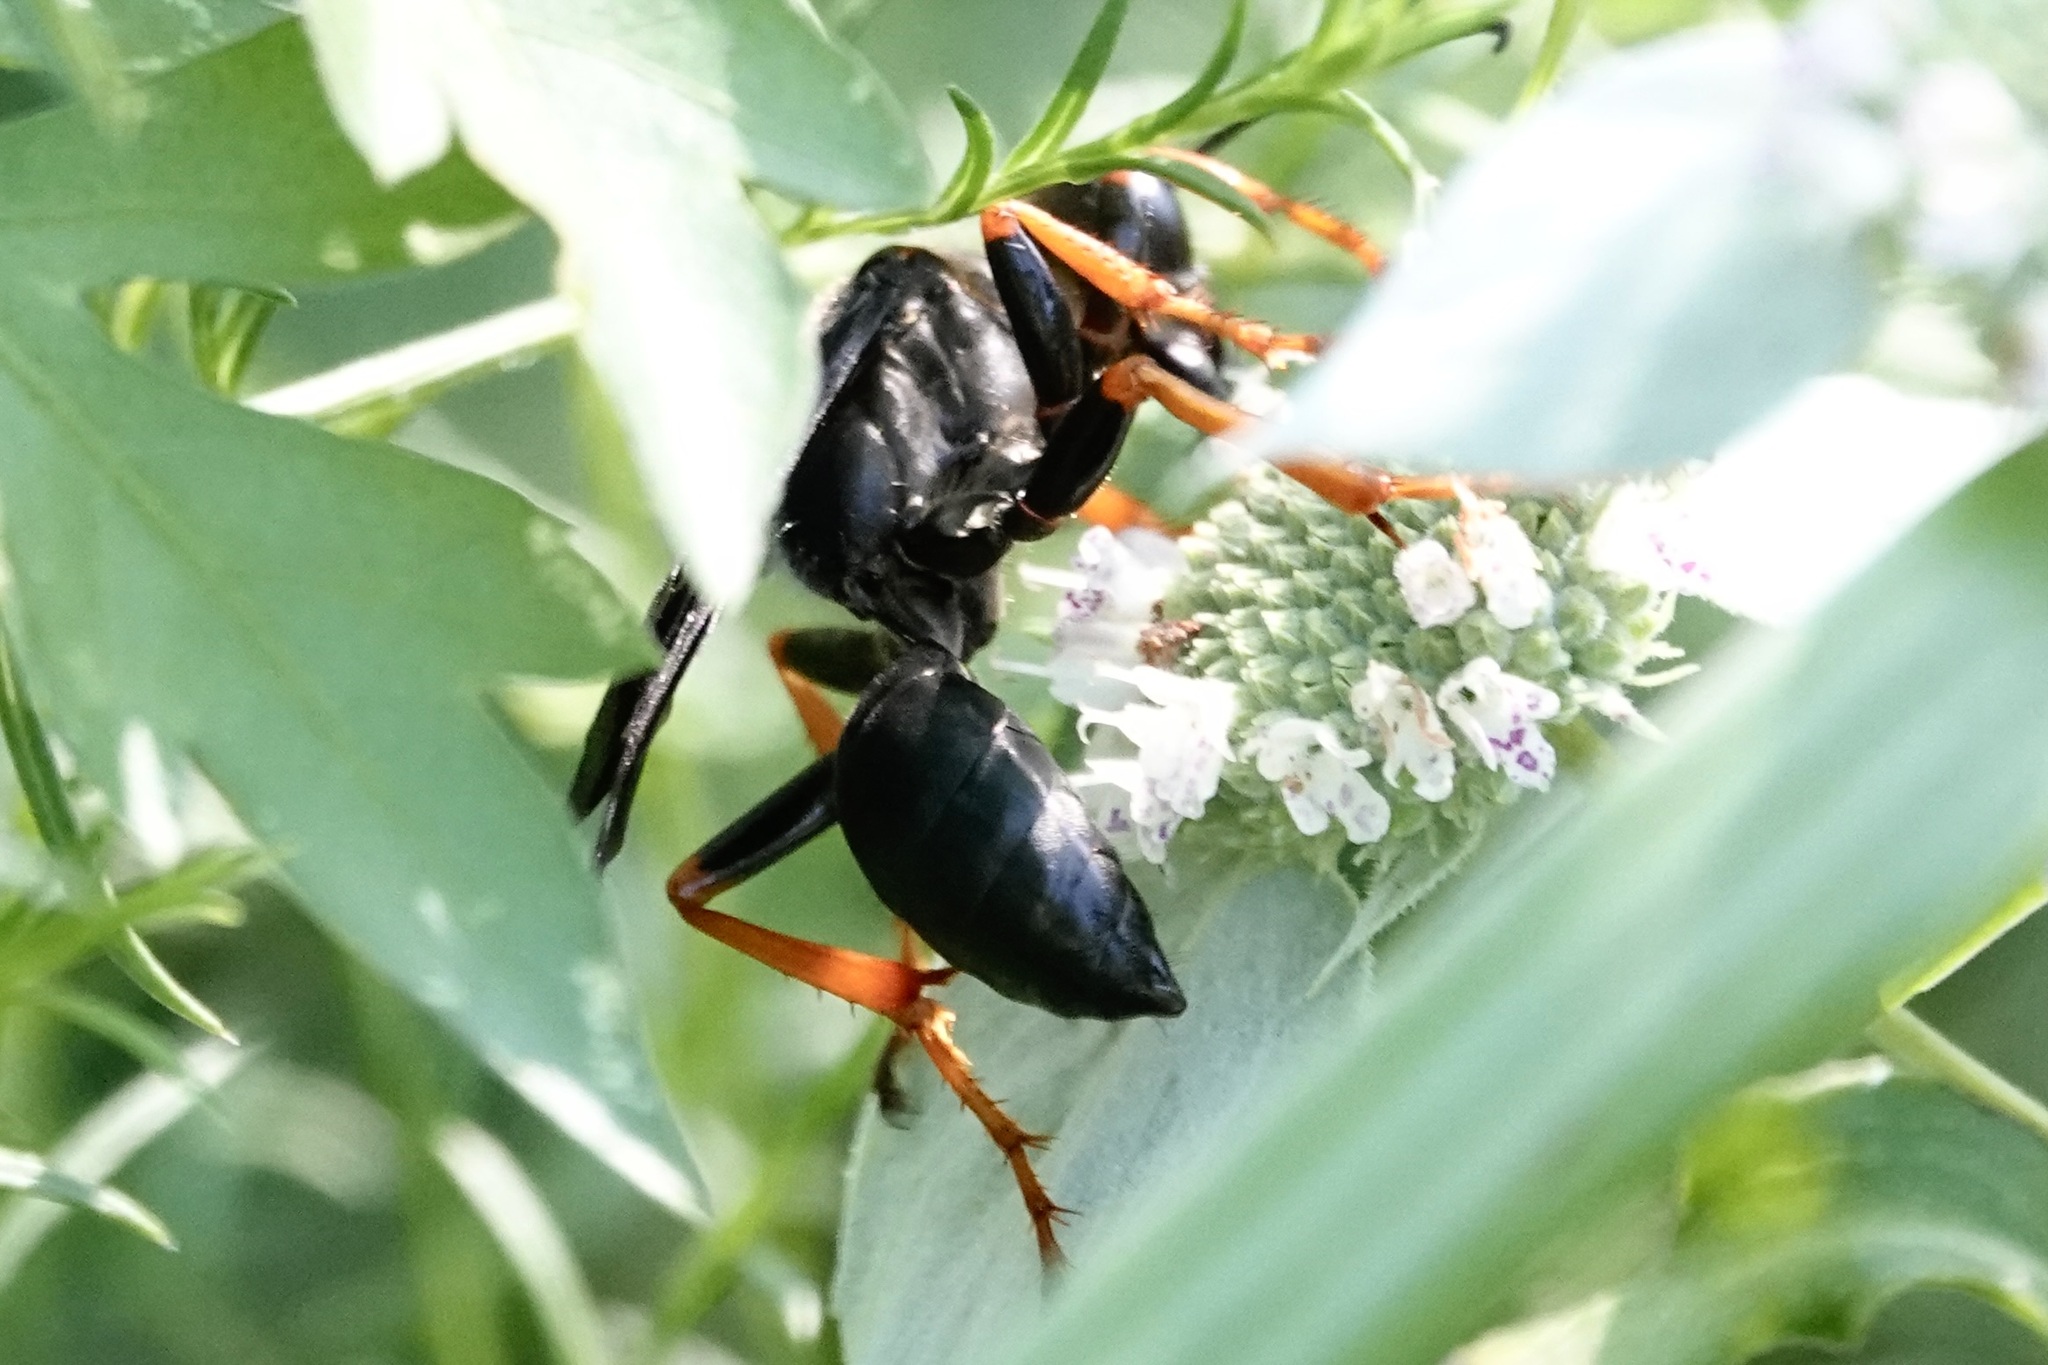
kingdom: Animalia
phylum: Arthropoda
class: Insecta
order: Hymenoptera
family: Sphecidae
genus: Sphex
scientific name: Sphex nudus
